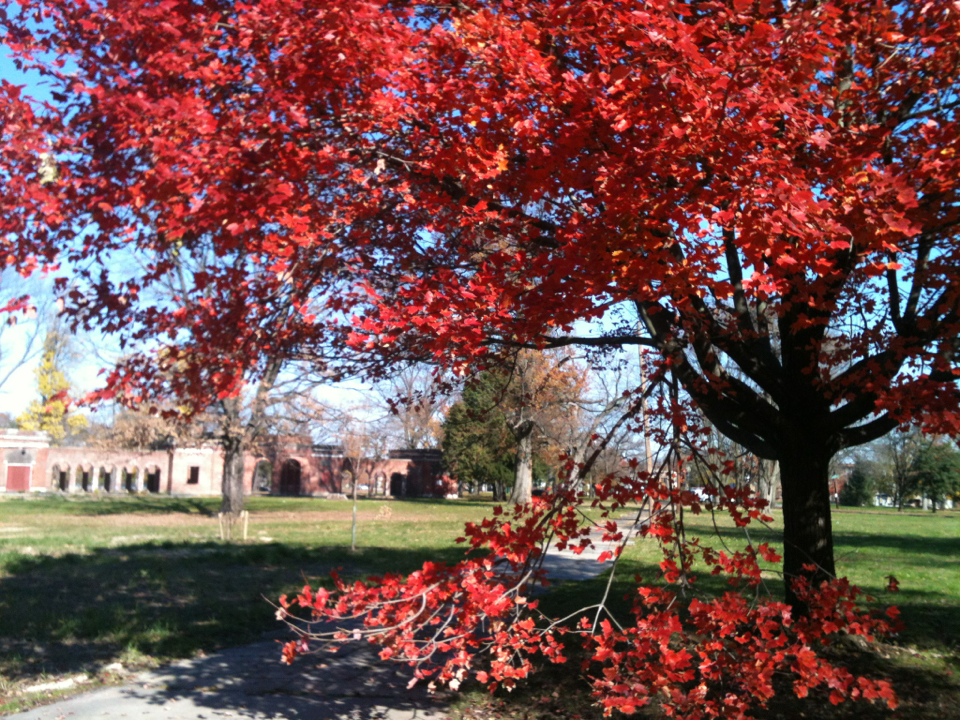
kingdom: Plantae
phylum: Tracheophyta
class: Magnoliopsida
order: Sapindales
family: Sapindaceae
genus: Acer
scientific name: Acer rubrum
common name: Red maple
